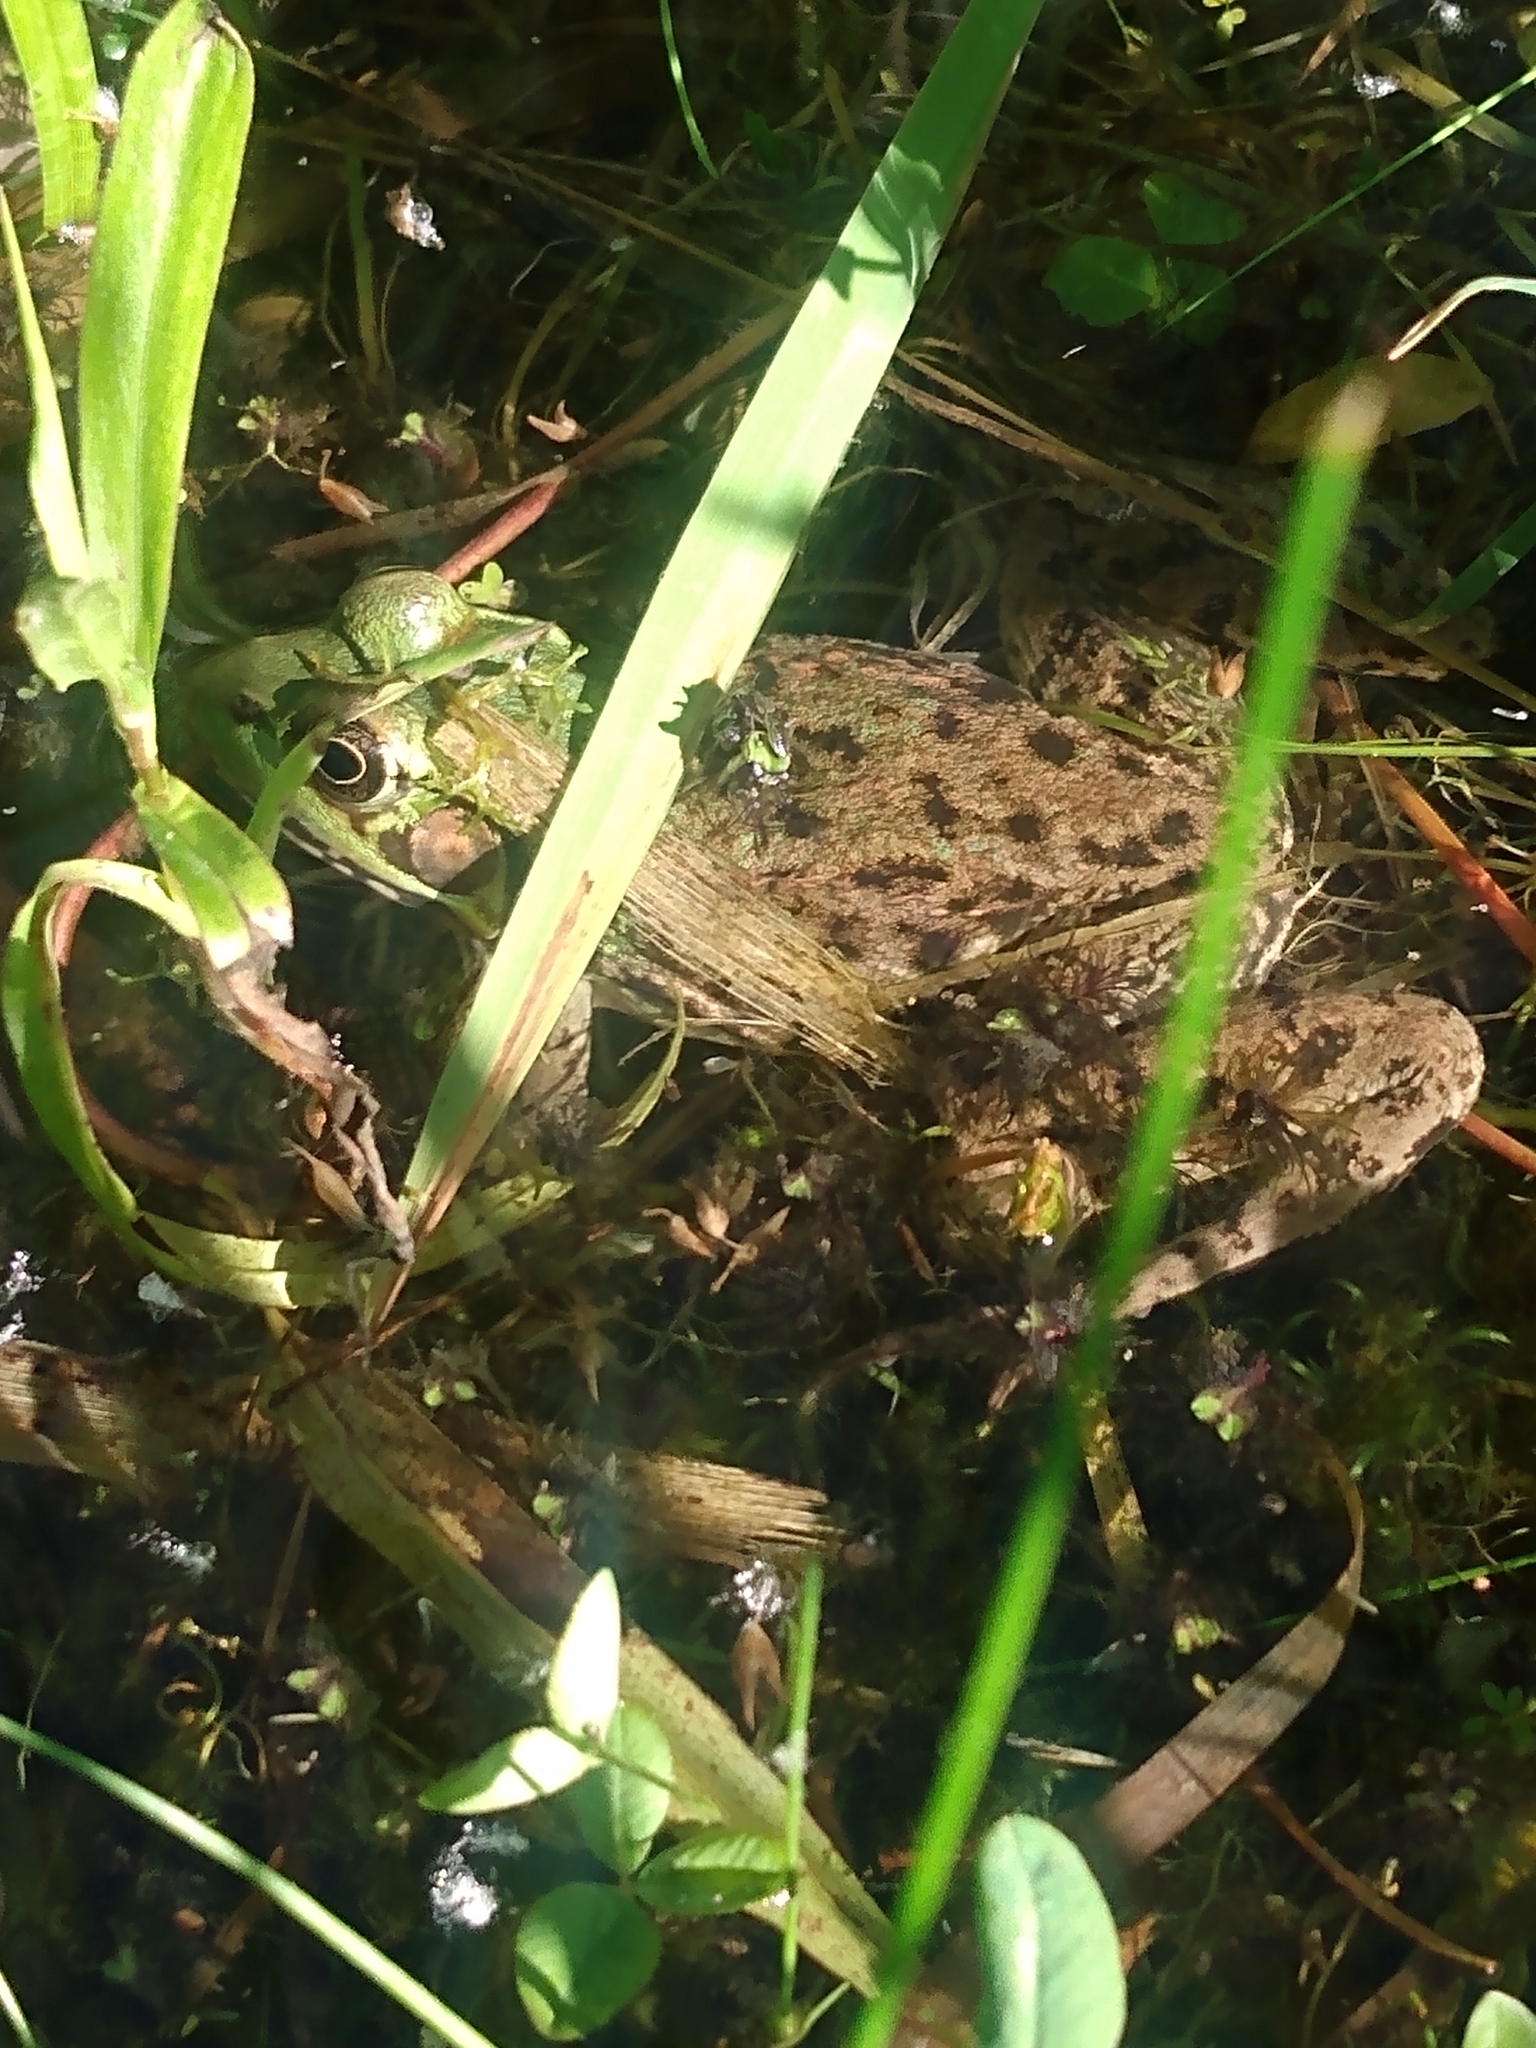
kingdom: Animalia
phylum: Chordata
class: Amphibia
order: Anura
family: Ranidae
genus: Lithobates
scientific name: Lithobates clamitans
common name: Green frog
